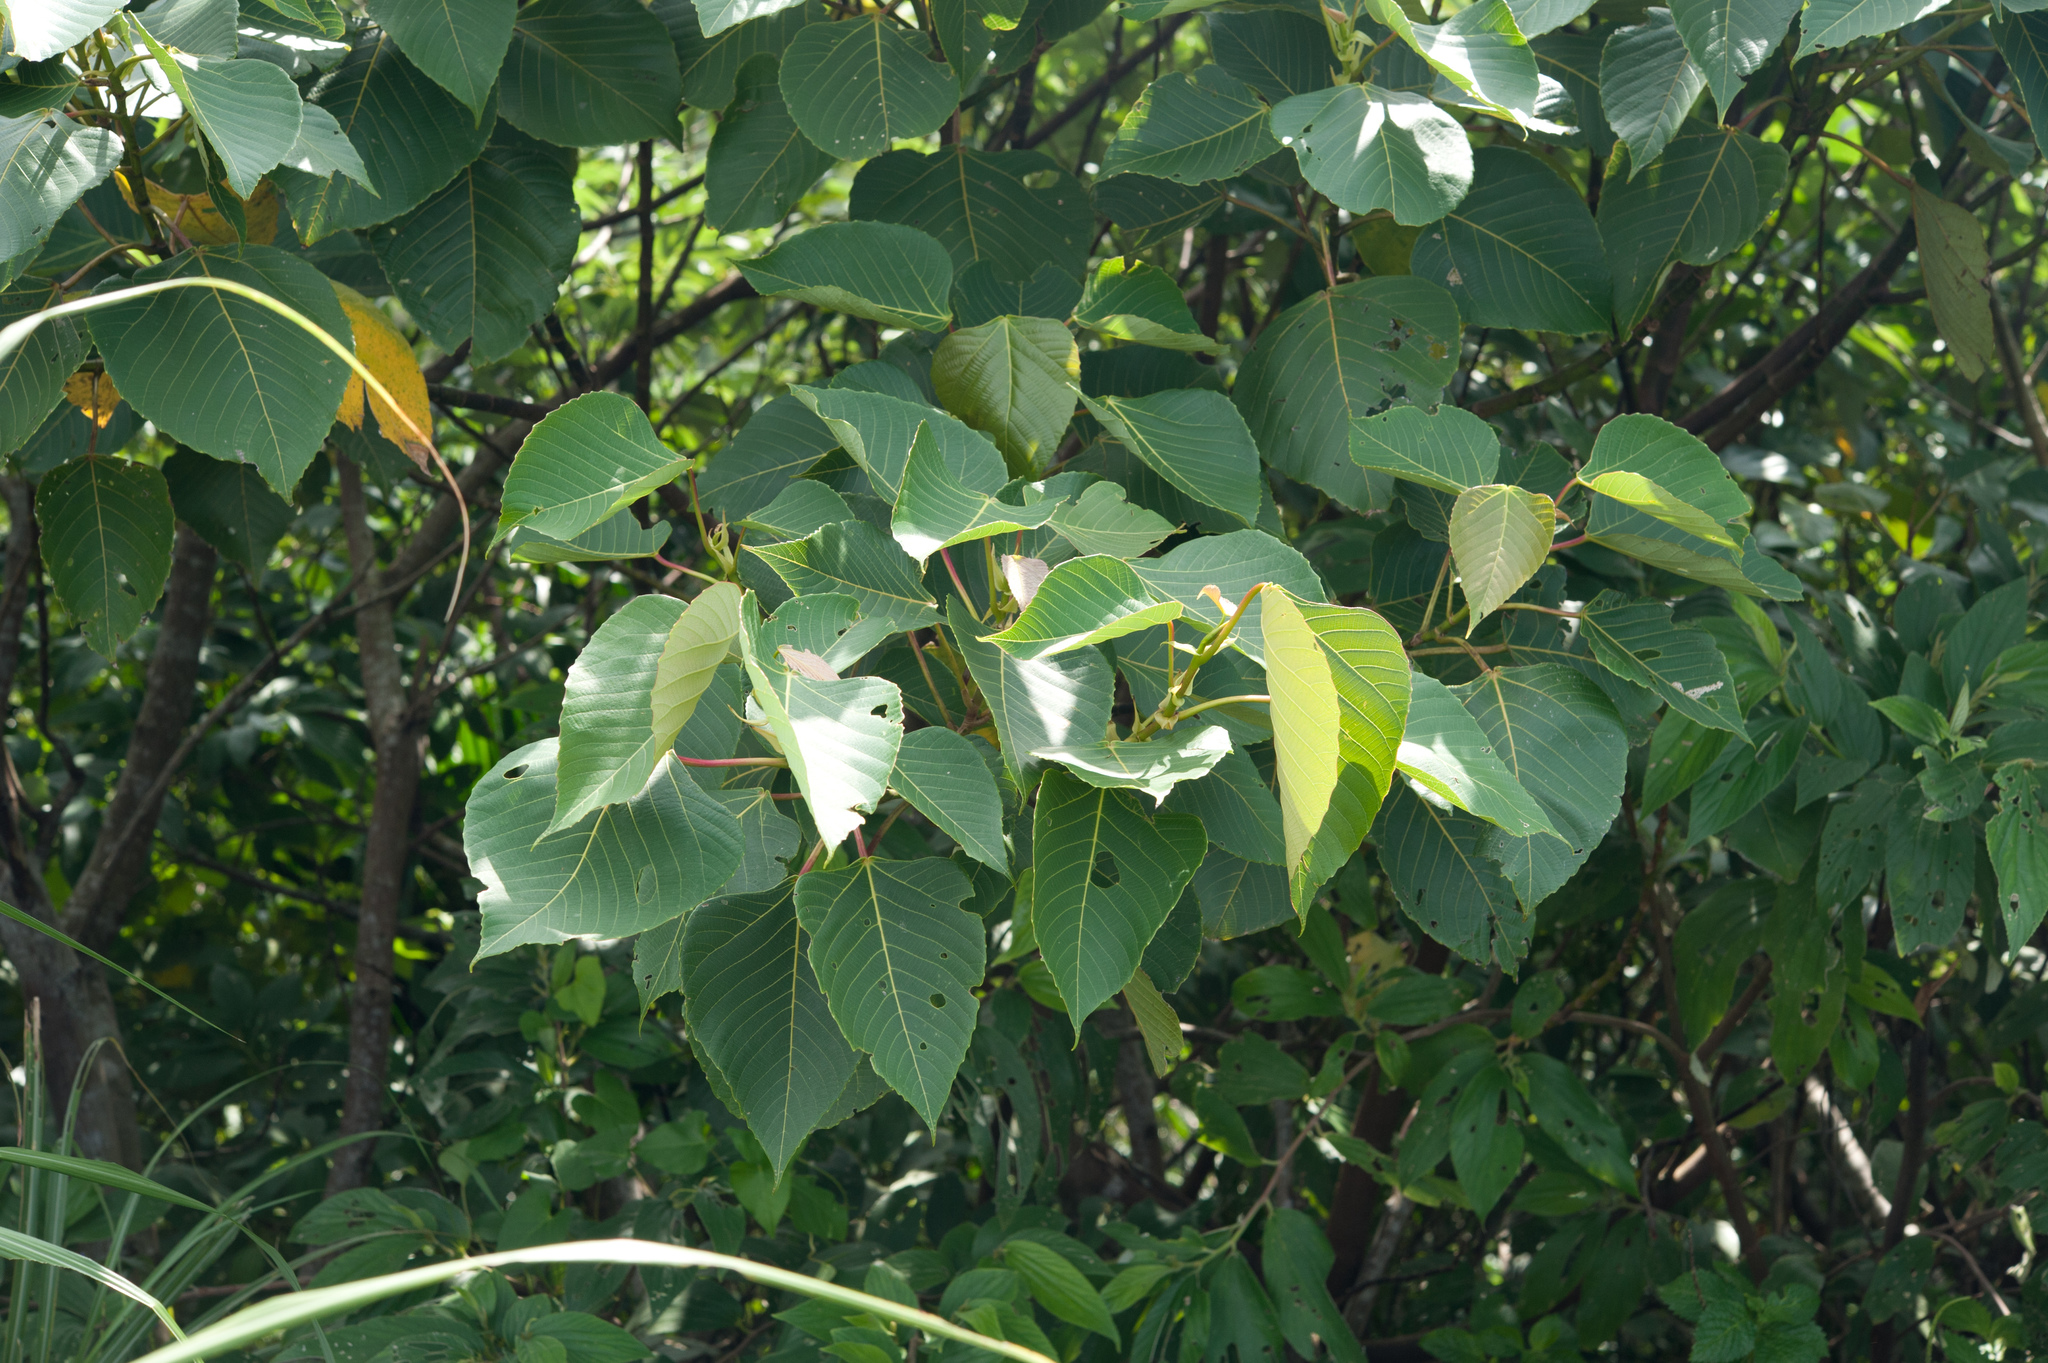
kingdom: Plantae
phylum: Tracheophyta
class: Magnoliopsida
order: Malpighiales
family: Euphorbiaceae
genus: Macaranga
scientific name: Macaranga sinensis
